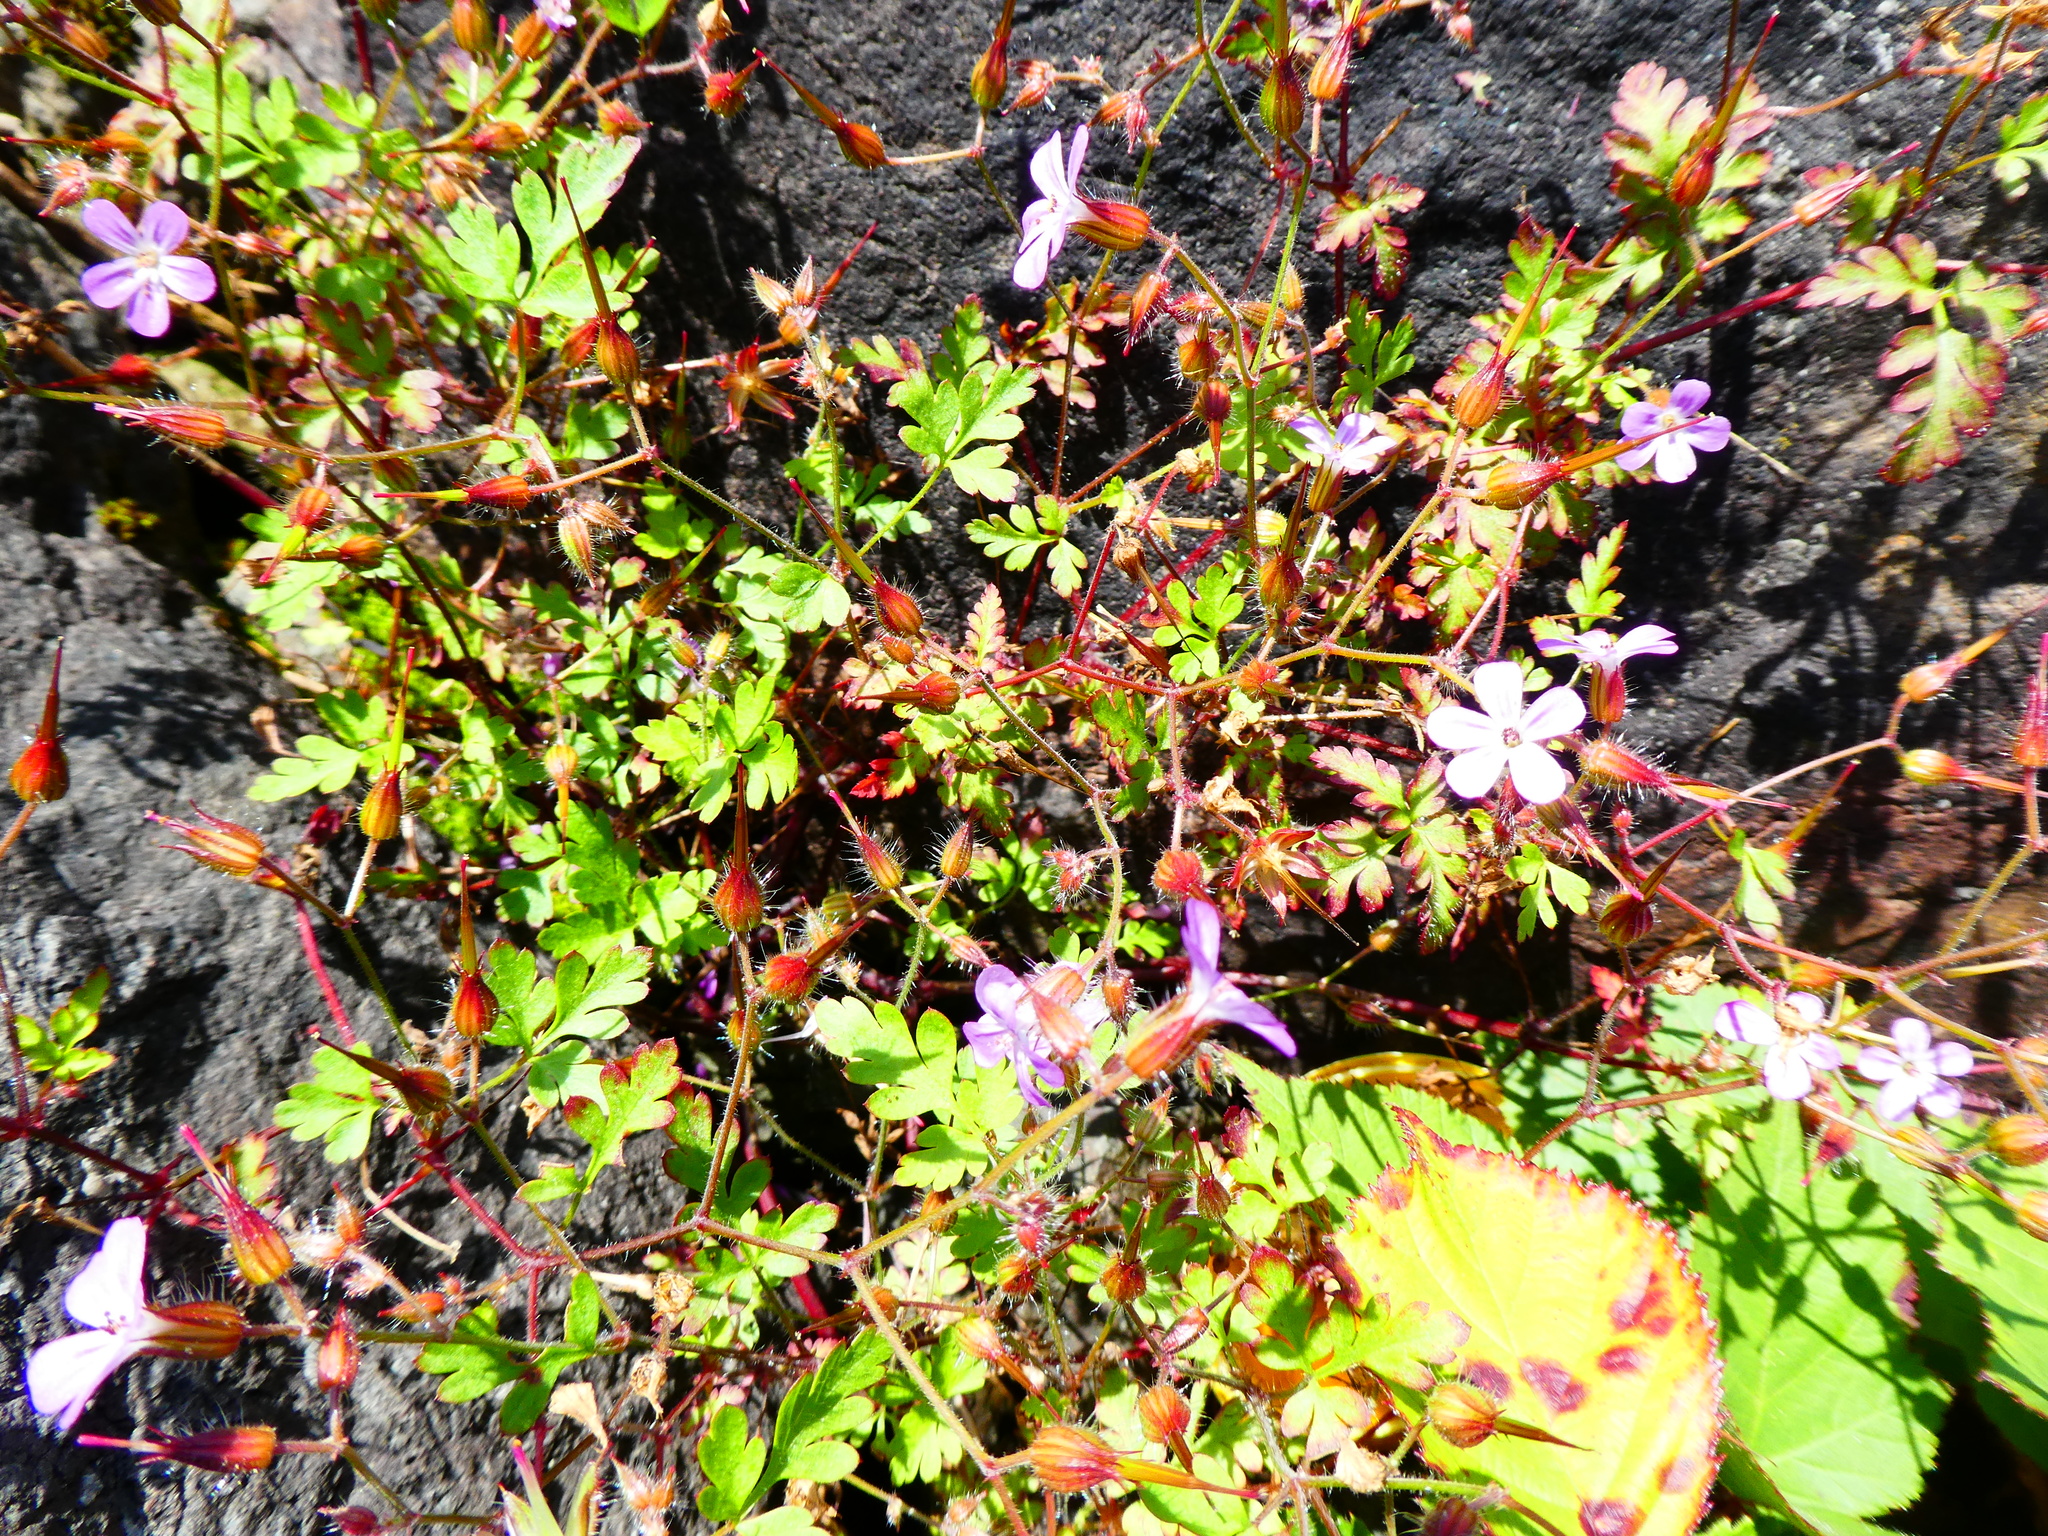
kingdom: Plantae
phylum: Tracheophyta
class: Magnoliopsida
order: Geraniales
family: Geraniaceae
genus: Geranium
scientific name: Geranium robertianum
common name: Herb-robert
